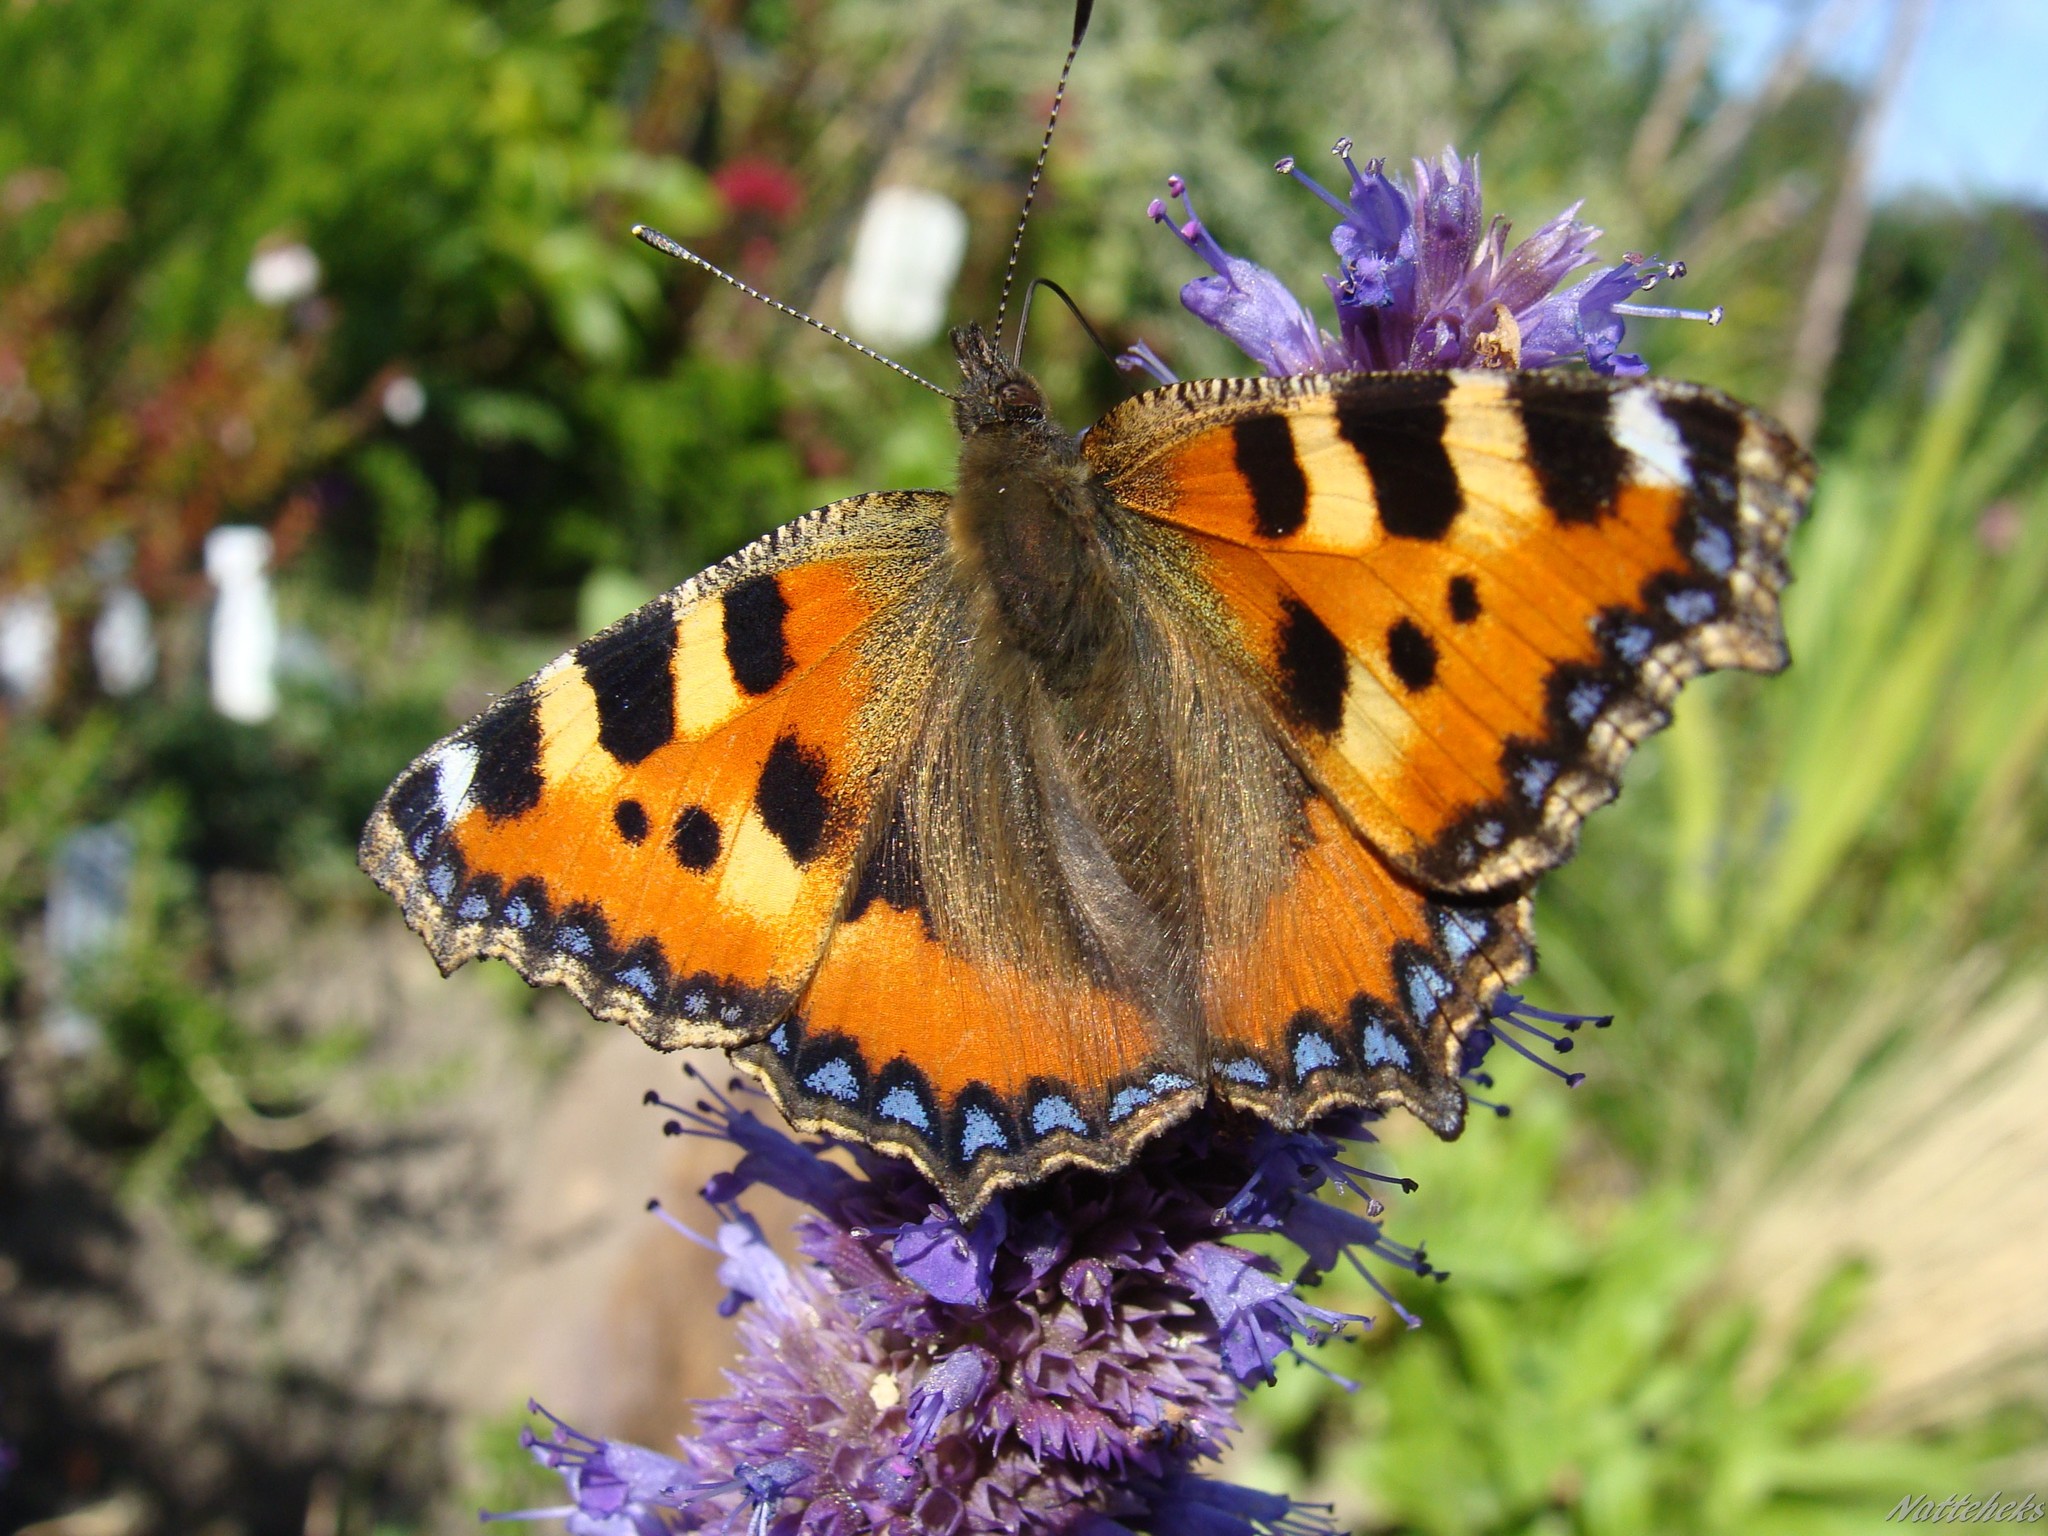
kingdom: Animalia
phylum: Arthropoda
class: Insecta
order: Lepidoptera
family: Nymphalidae
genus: Aglais
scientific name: Aglais urticae
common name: Small tortoiseshell
